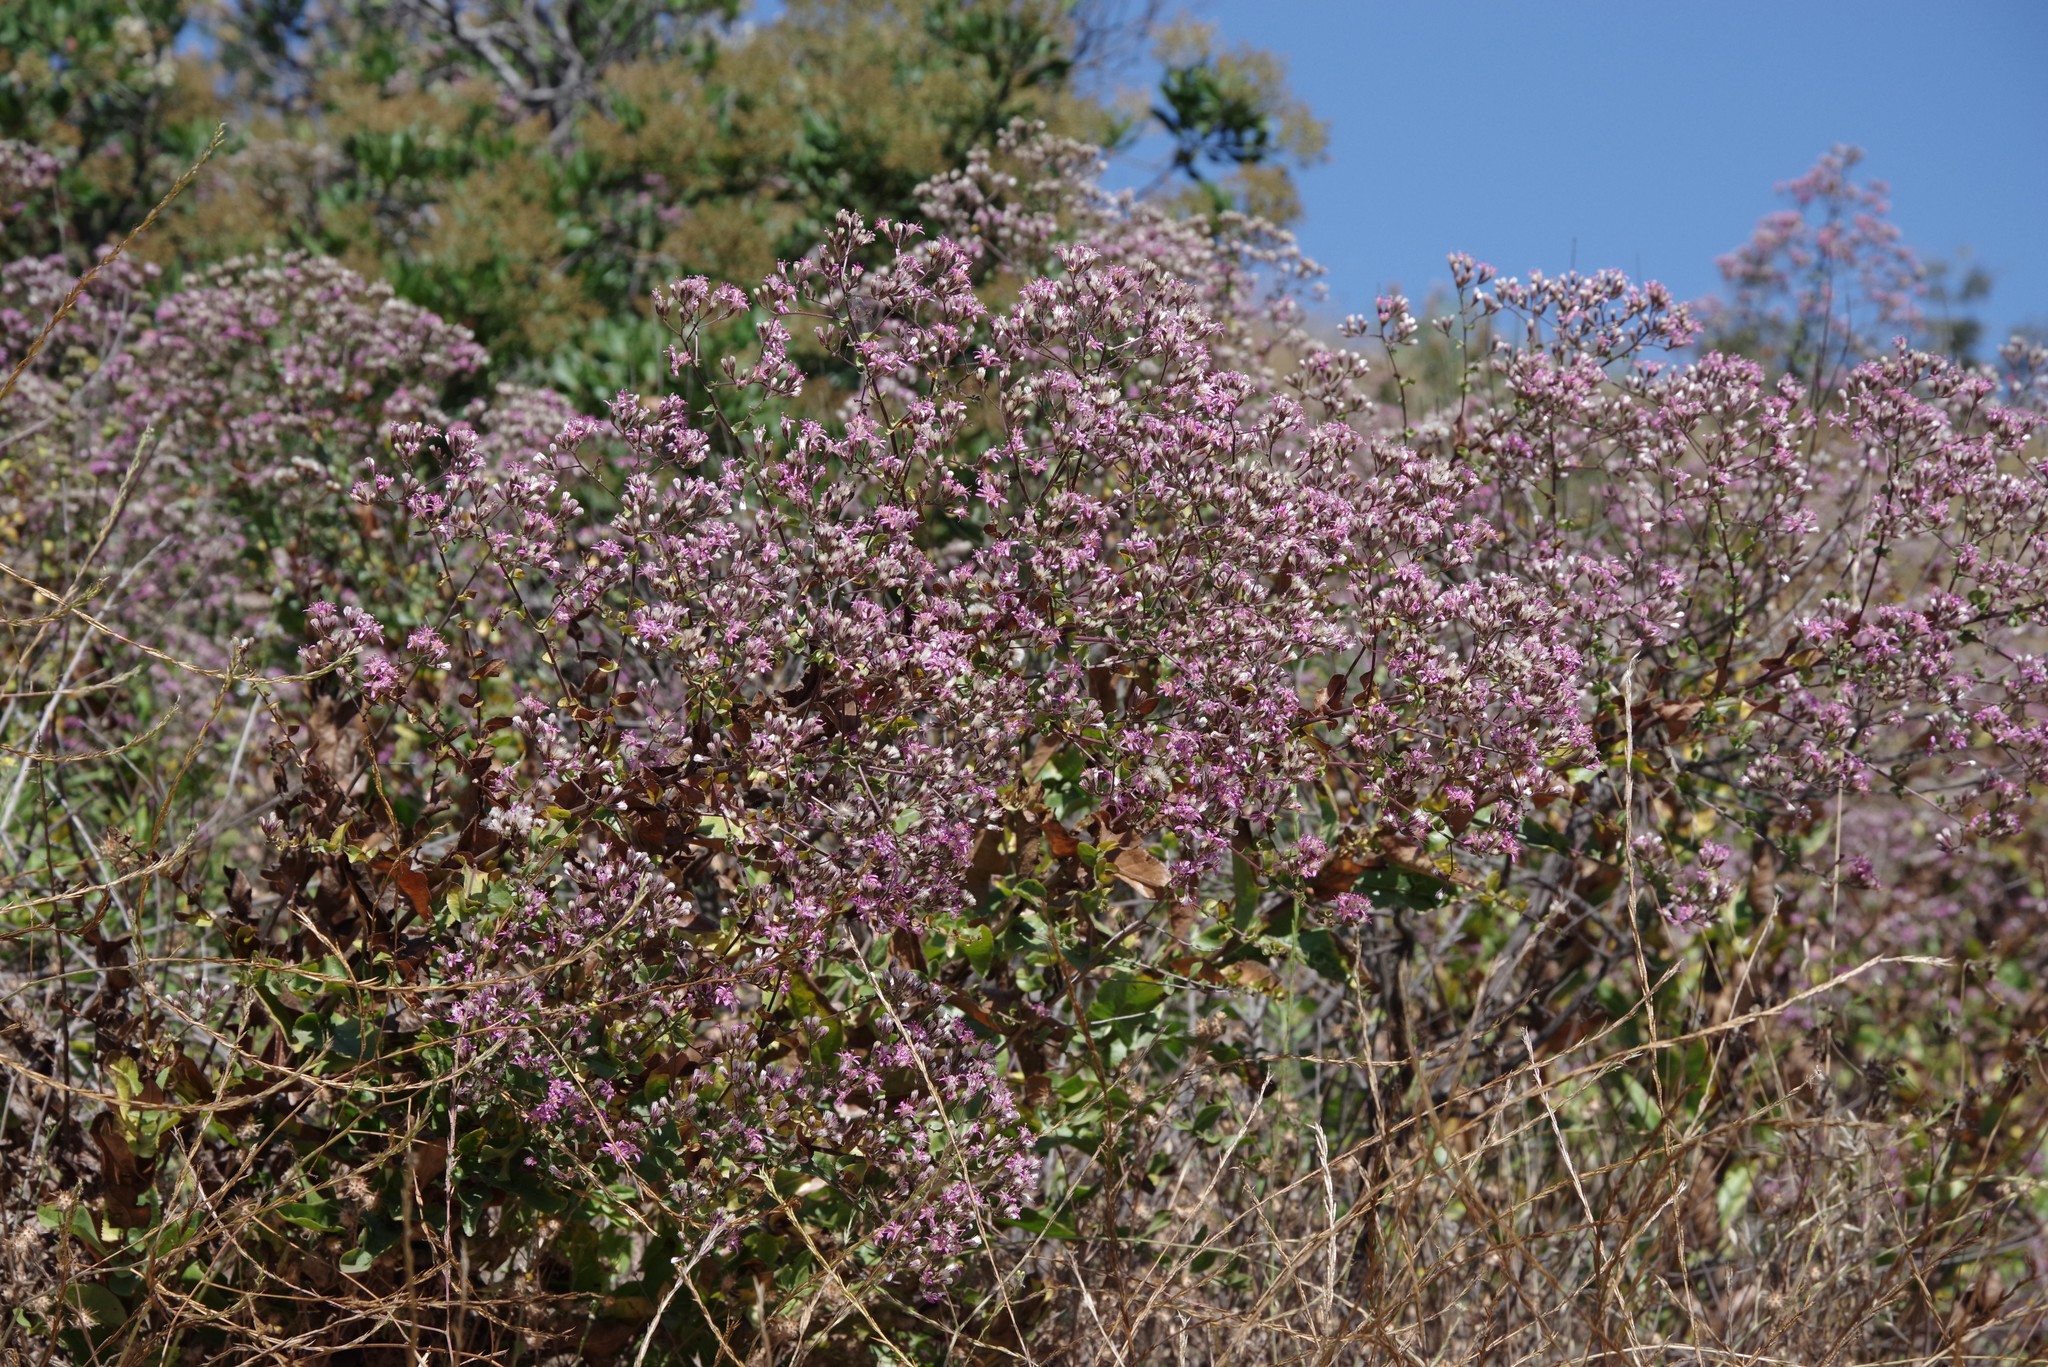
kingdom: Plantae
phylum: Tracheophyta
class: Magnoliopsida
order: Asterales
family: Asteraceae
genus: Acourtia
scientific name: Acourtia microcephala
